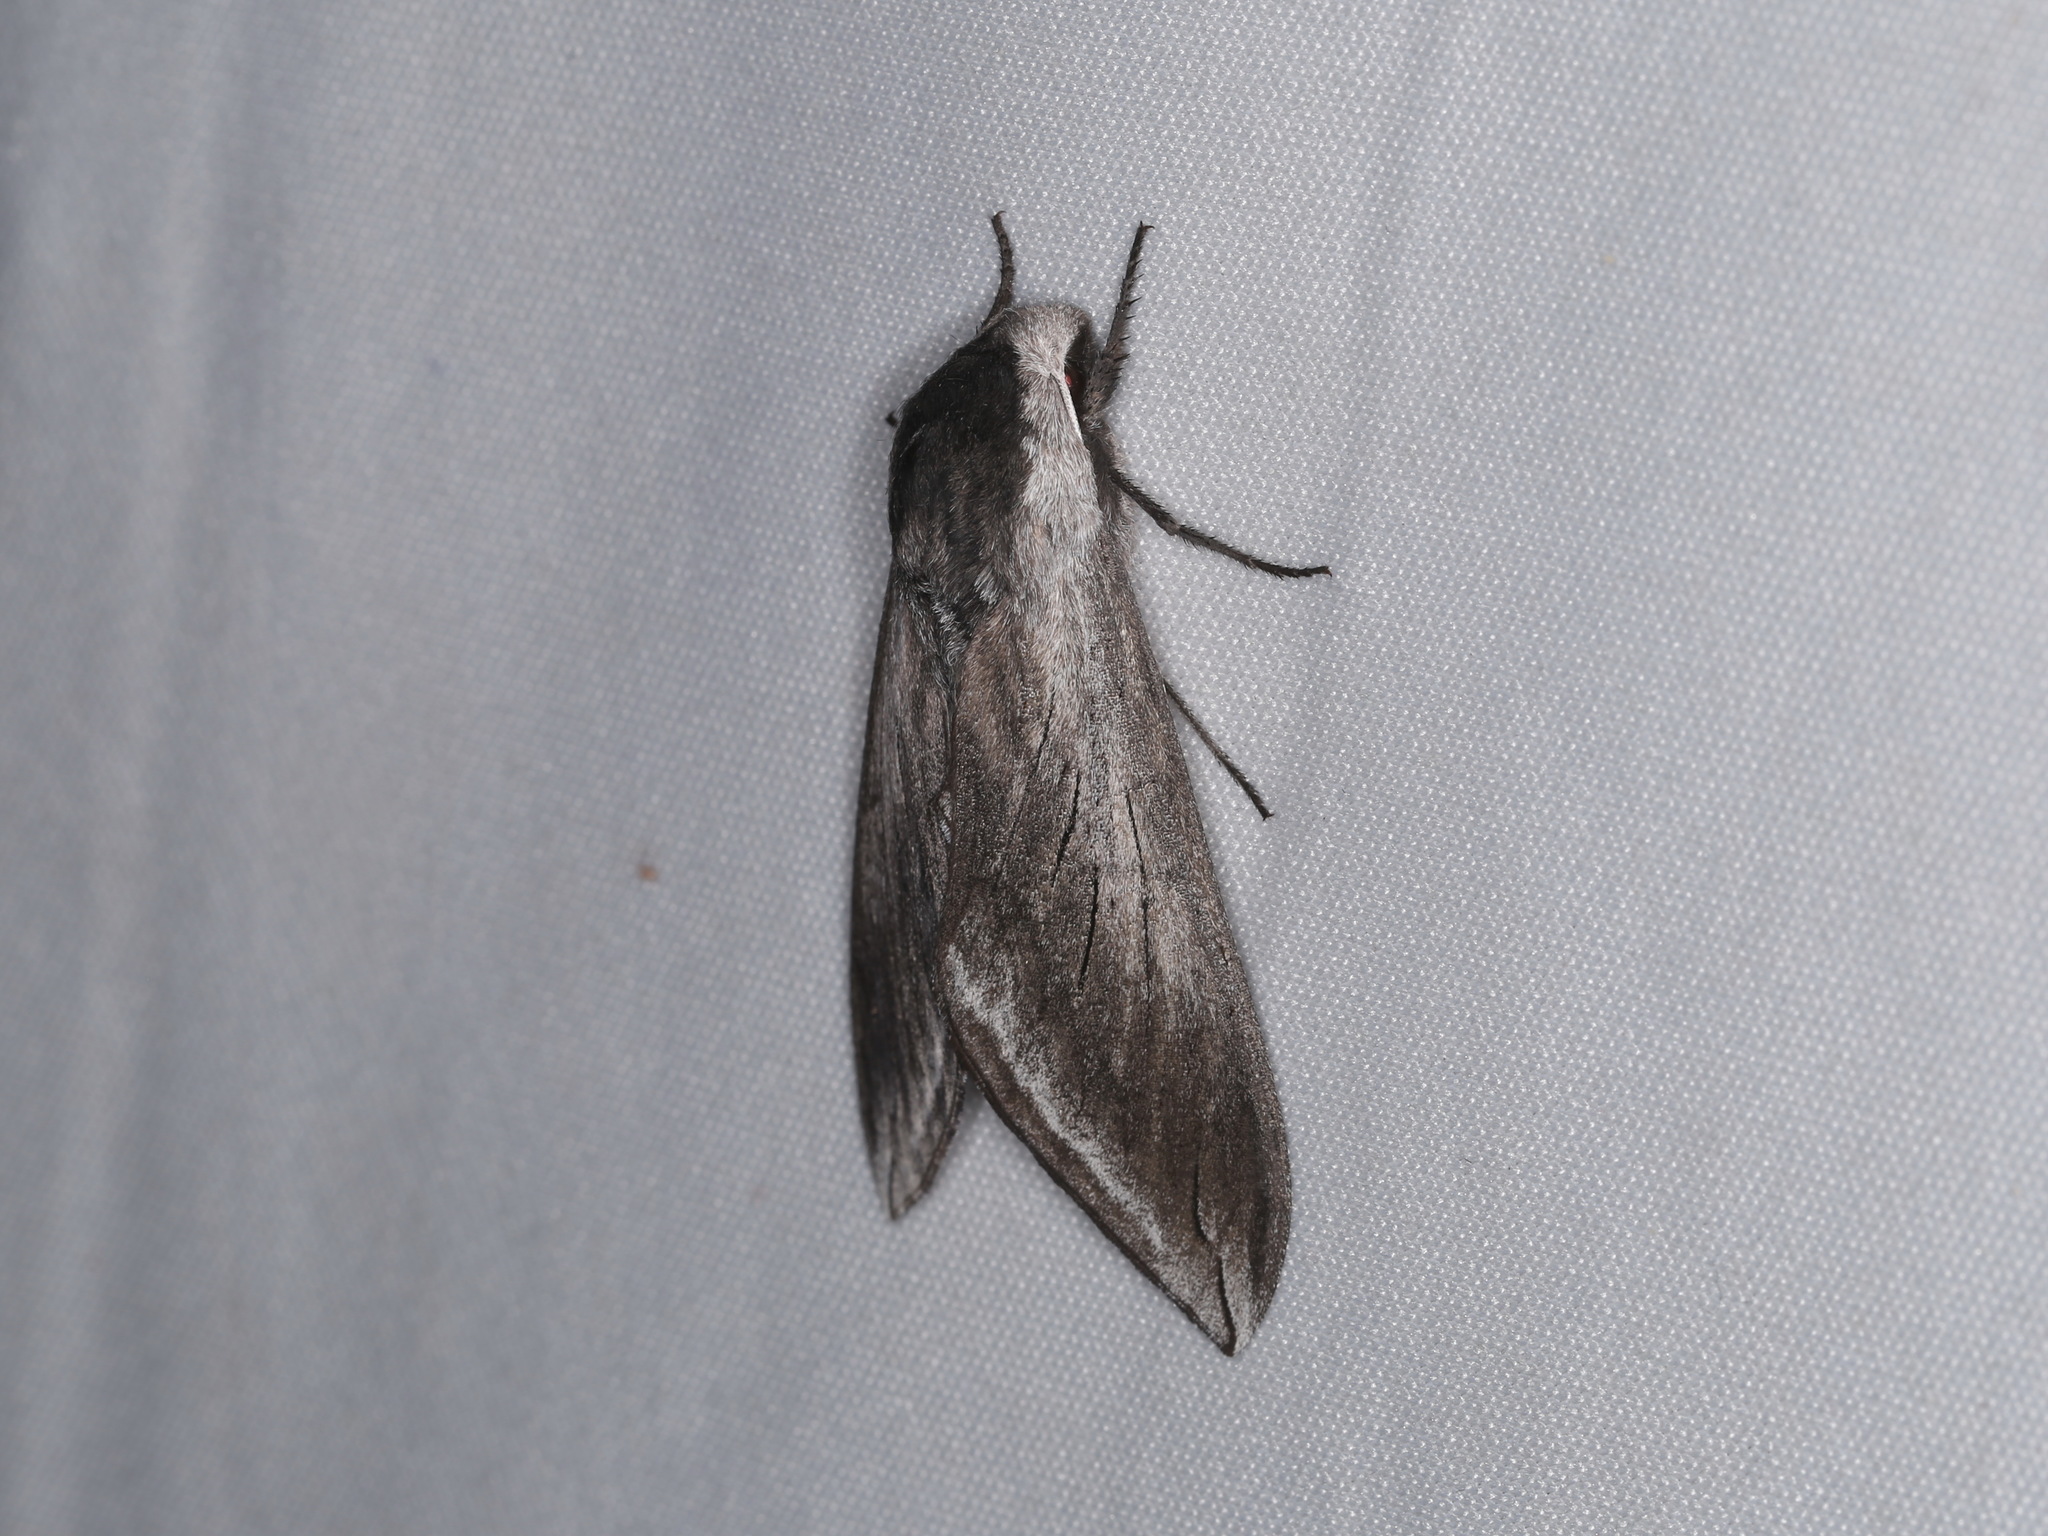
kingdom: Animalia
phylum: Arthropoda
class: Insecta
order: Lepidoptera
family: Sphingidae
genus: Sphinx
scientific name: Sphinx perelegans
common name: Elegant sphinx
